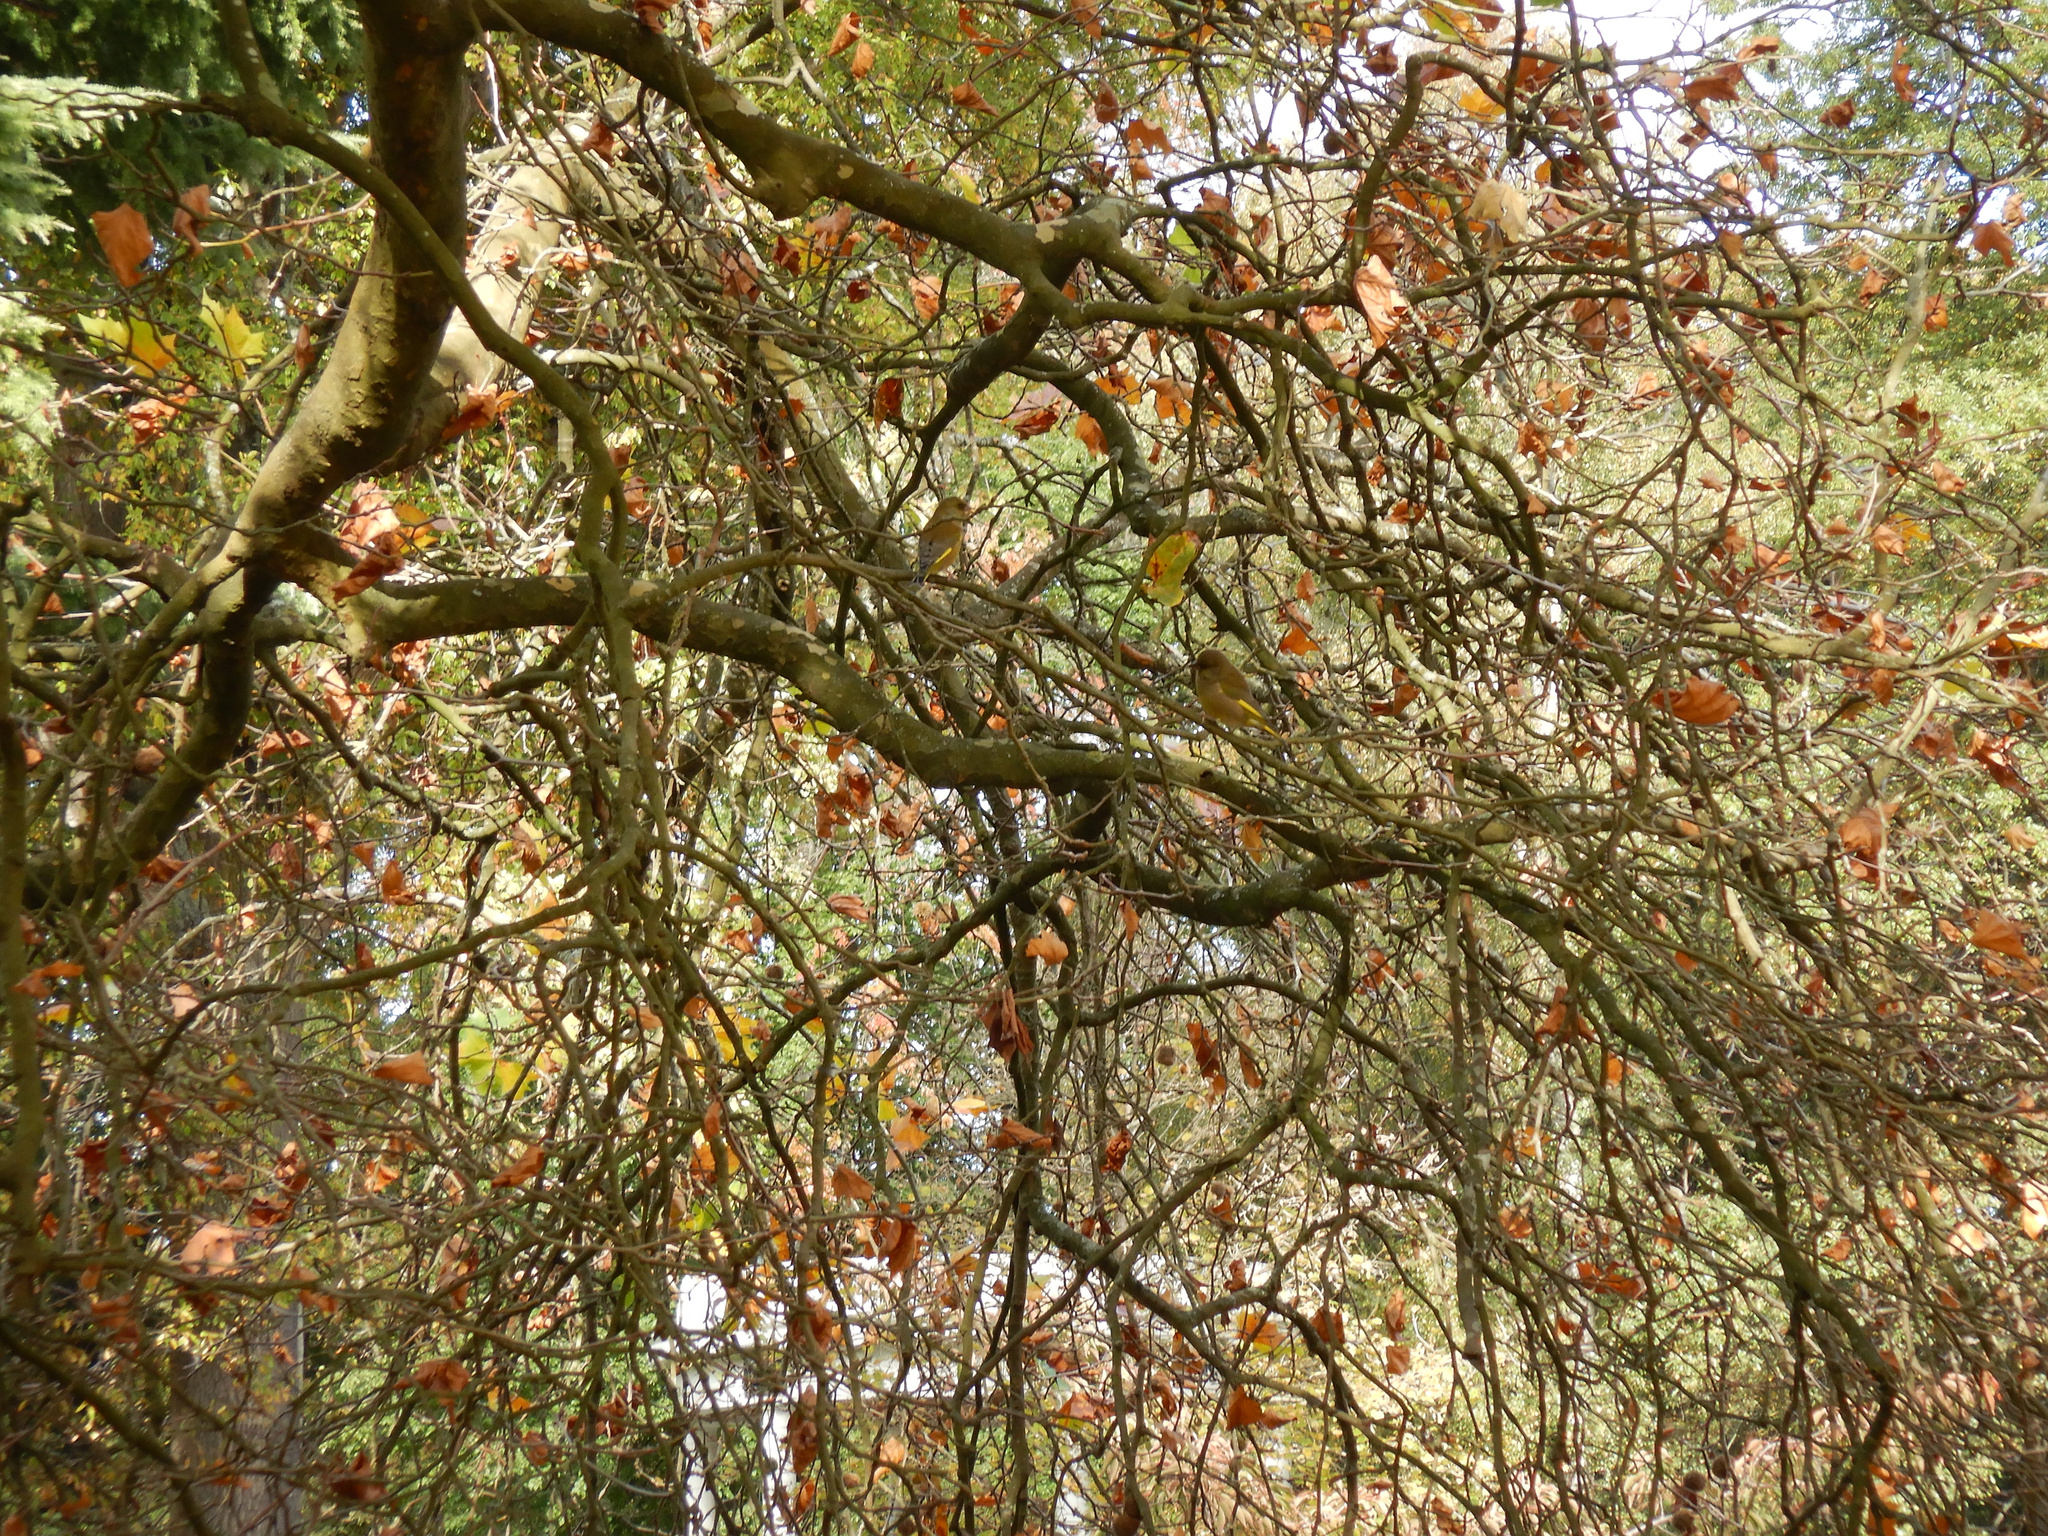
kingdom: Plantae
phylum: Tracheophyta
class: Liliopsida
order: Poales
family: Poaceae
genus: Chloris
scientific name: Chloris chloris
